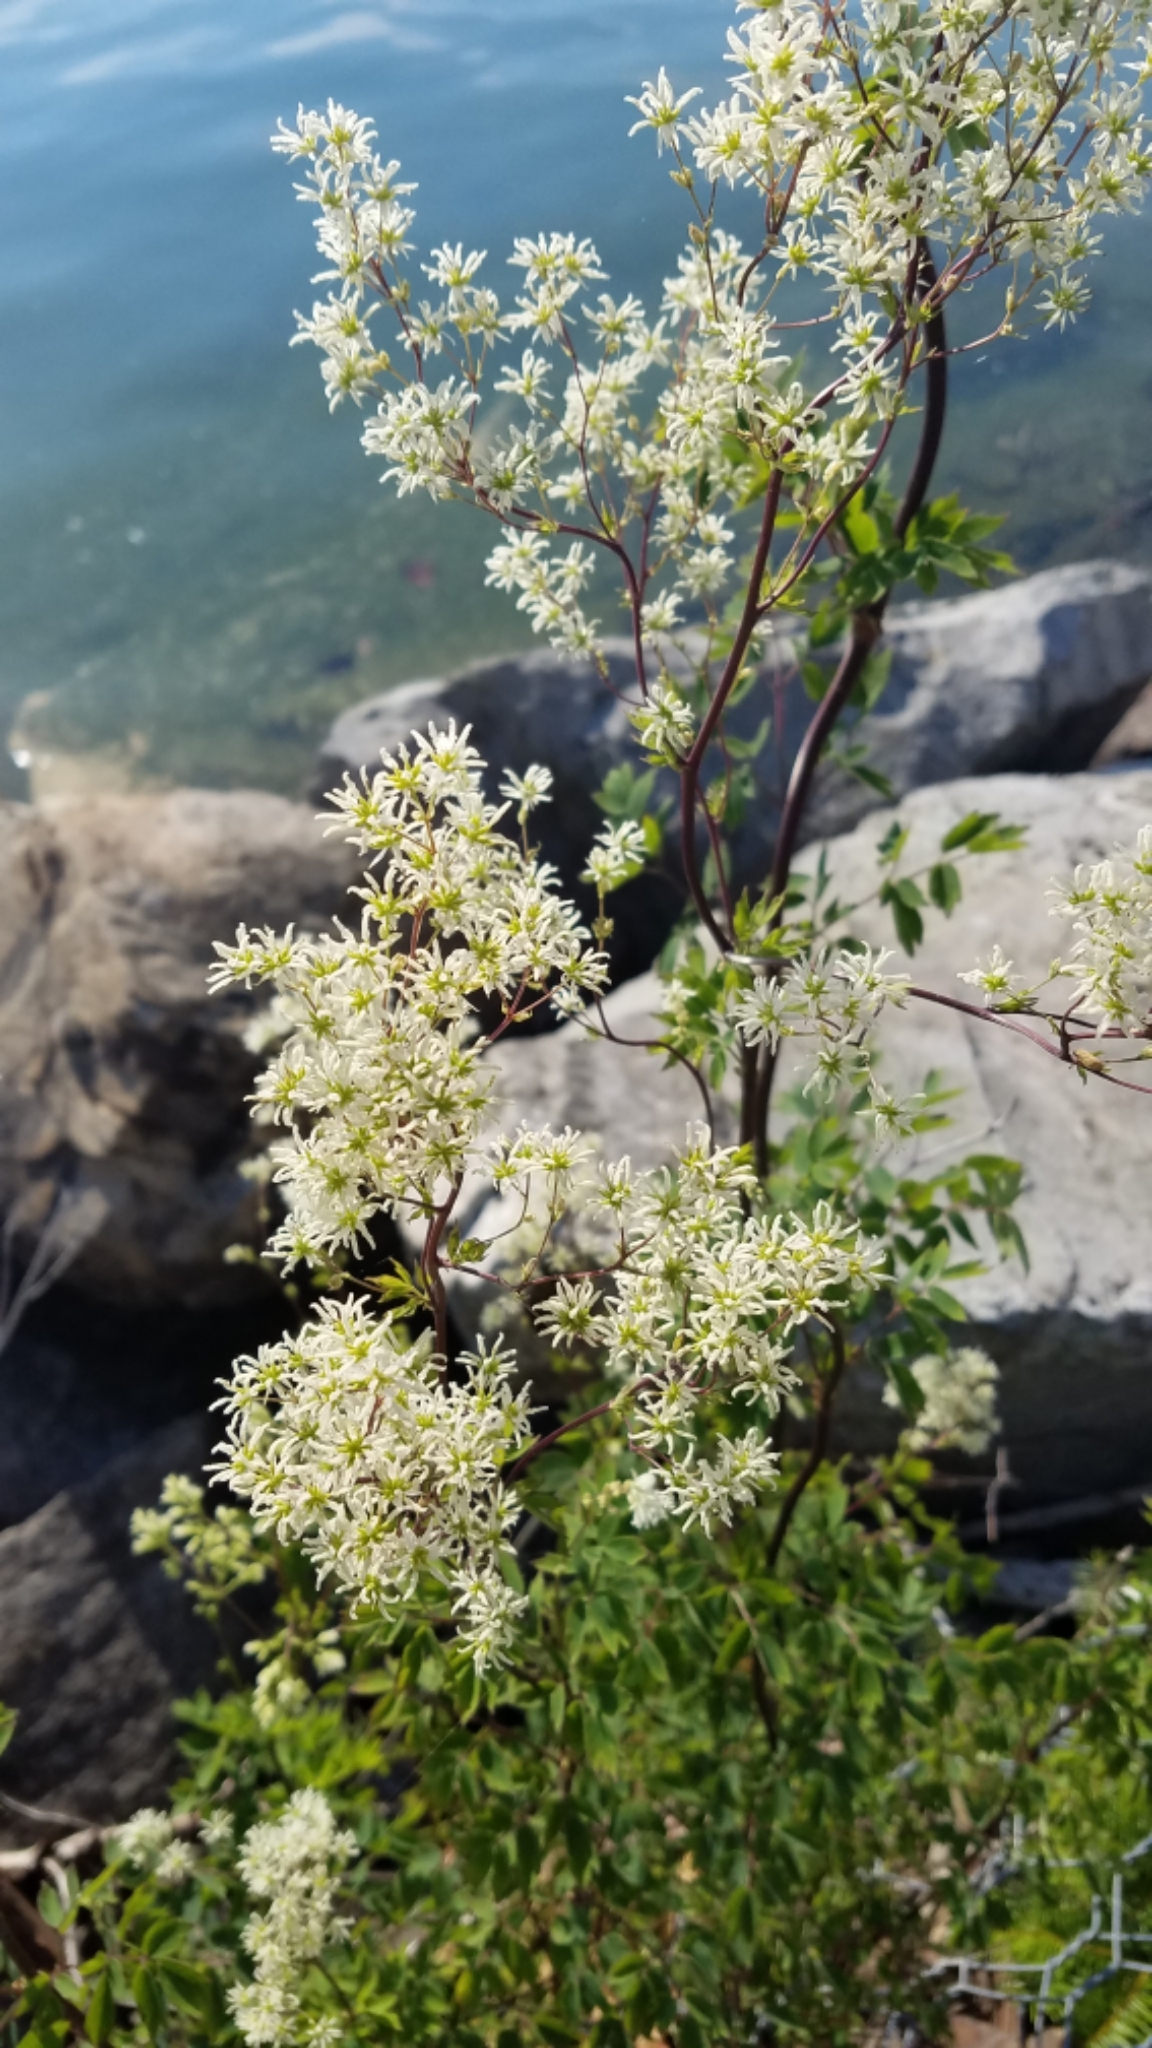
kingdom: Plantae
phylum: Tracheophyta
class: Magnoliopsida
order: Ranunculales
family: Ranunculaceae
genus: Thalictrum
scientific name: Thalictrum dasycarpum
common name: Purple meadow-rue
